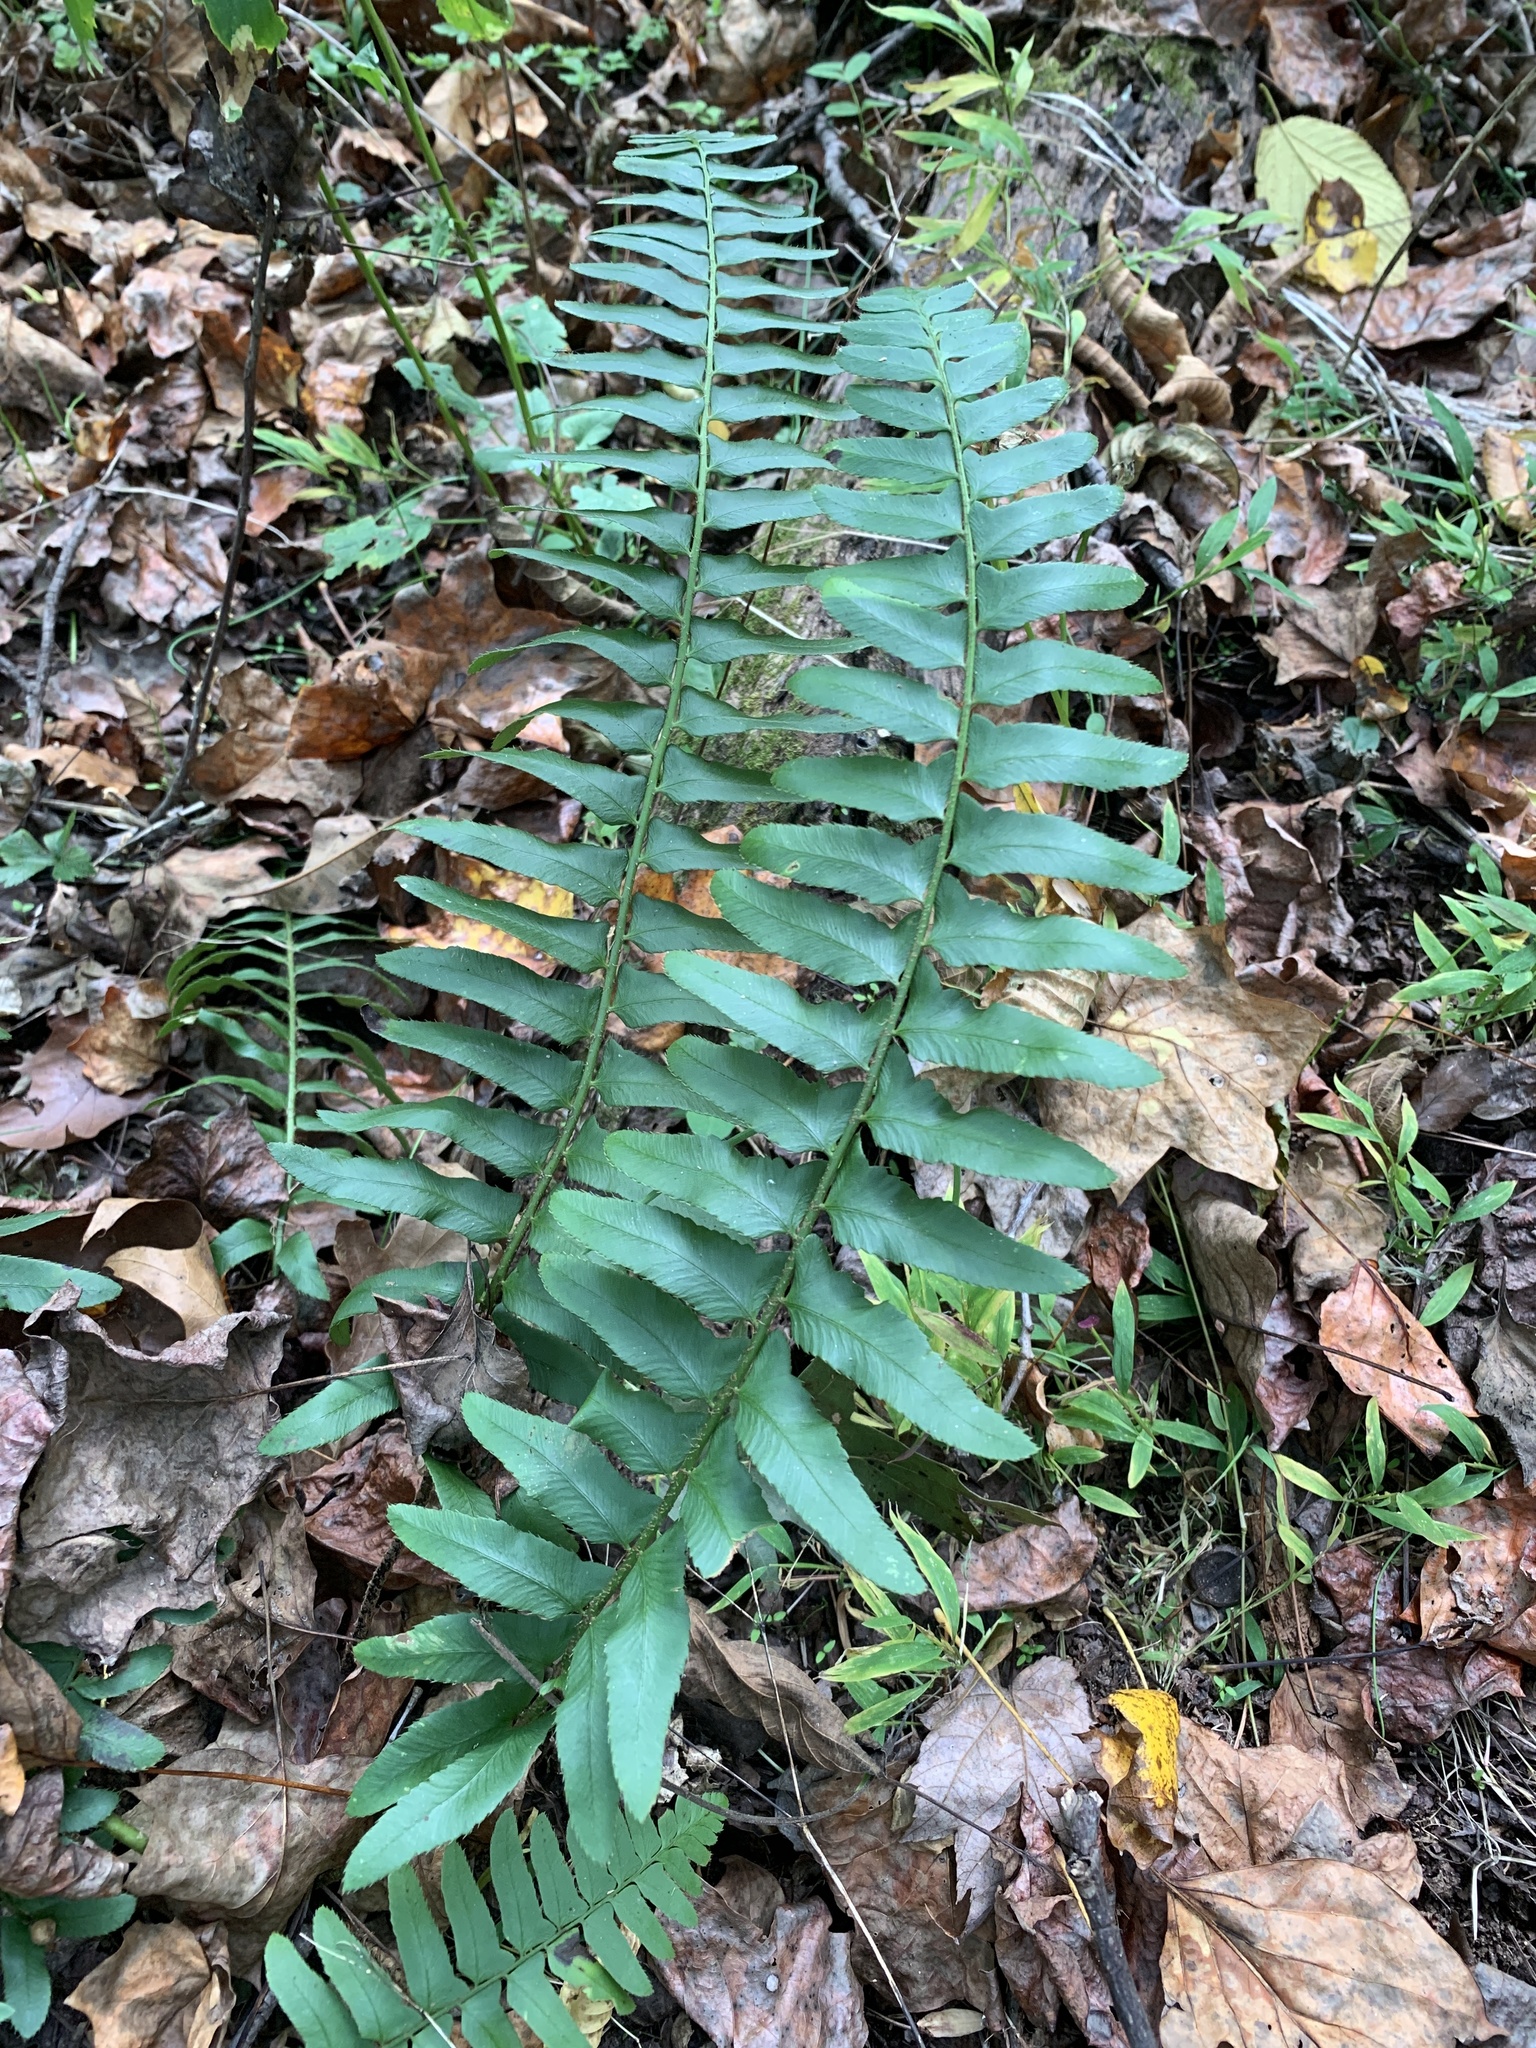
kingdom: Plantae
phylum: Tracheophyta
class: Polypodiopsida
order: Polypodiales
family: Dryopteridaceae
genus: Polystichum
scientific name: Polystichum acrostichoides
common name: Christmas fern
